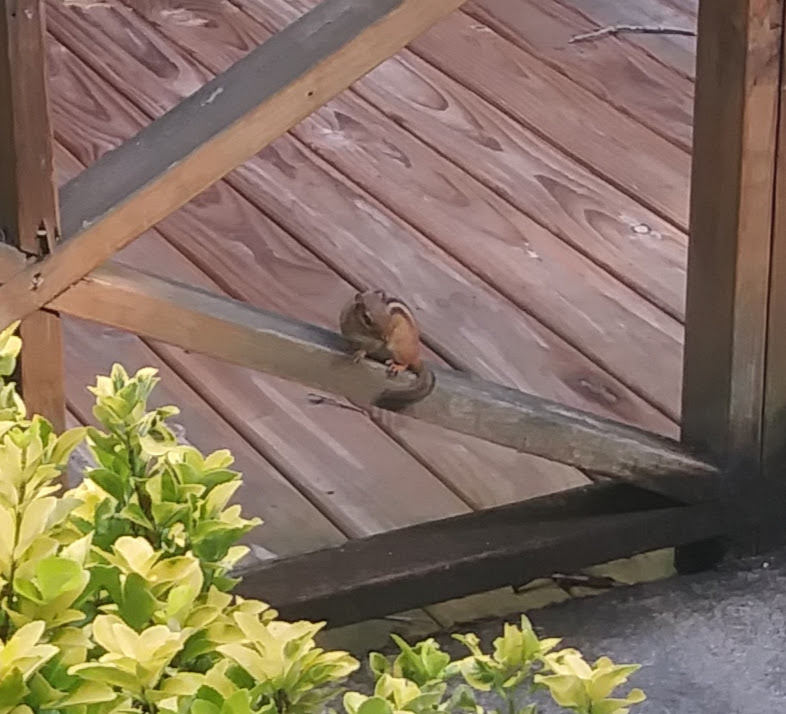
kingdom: Animalia
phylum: Chordata
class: Mammalia
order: Rodentia
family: Sciuridae
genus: Tamias
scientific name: Tamias striatus
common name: Eastern chipmunk
